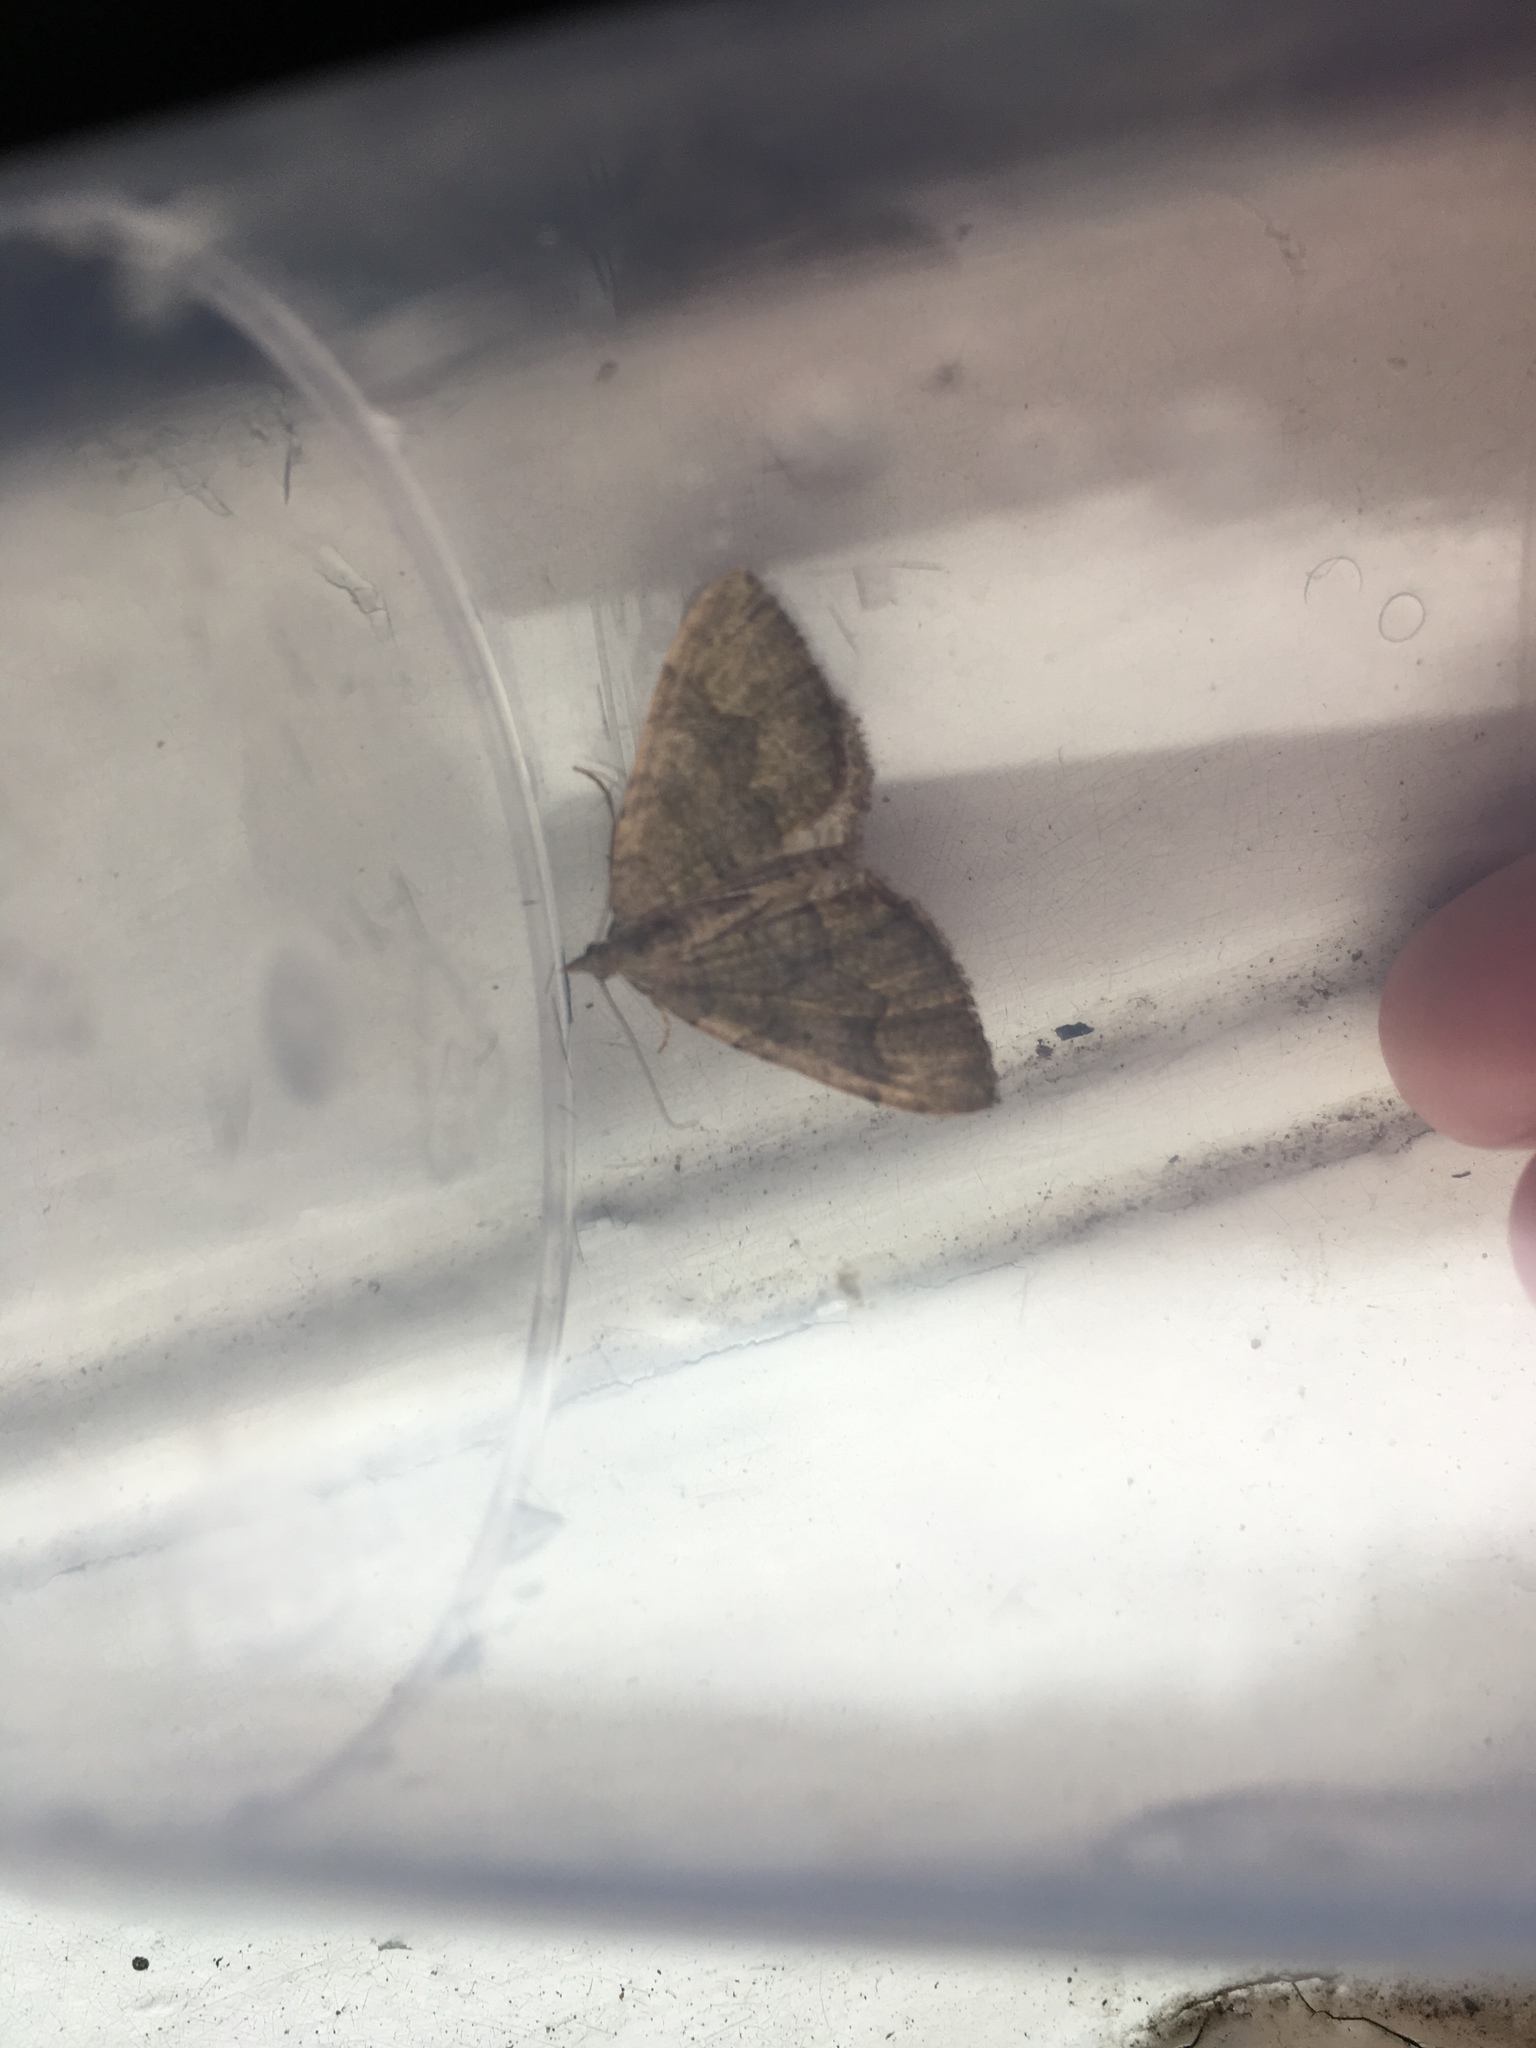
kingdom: Animalia
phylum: Arthropoda
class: Insecta
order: Lepidoptera
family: Geometridae
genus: Epyaxa
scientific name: Epyaxa rosearia
